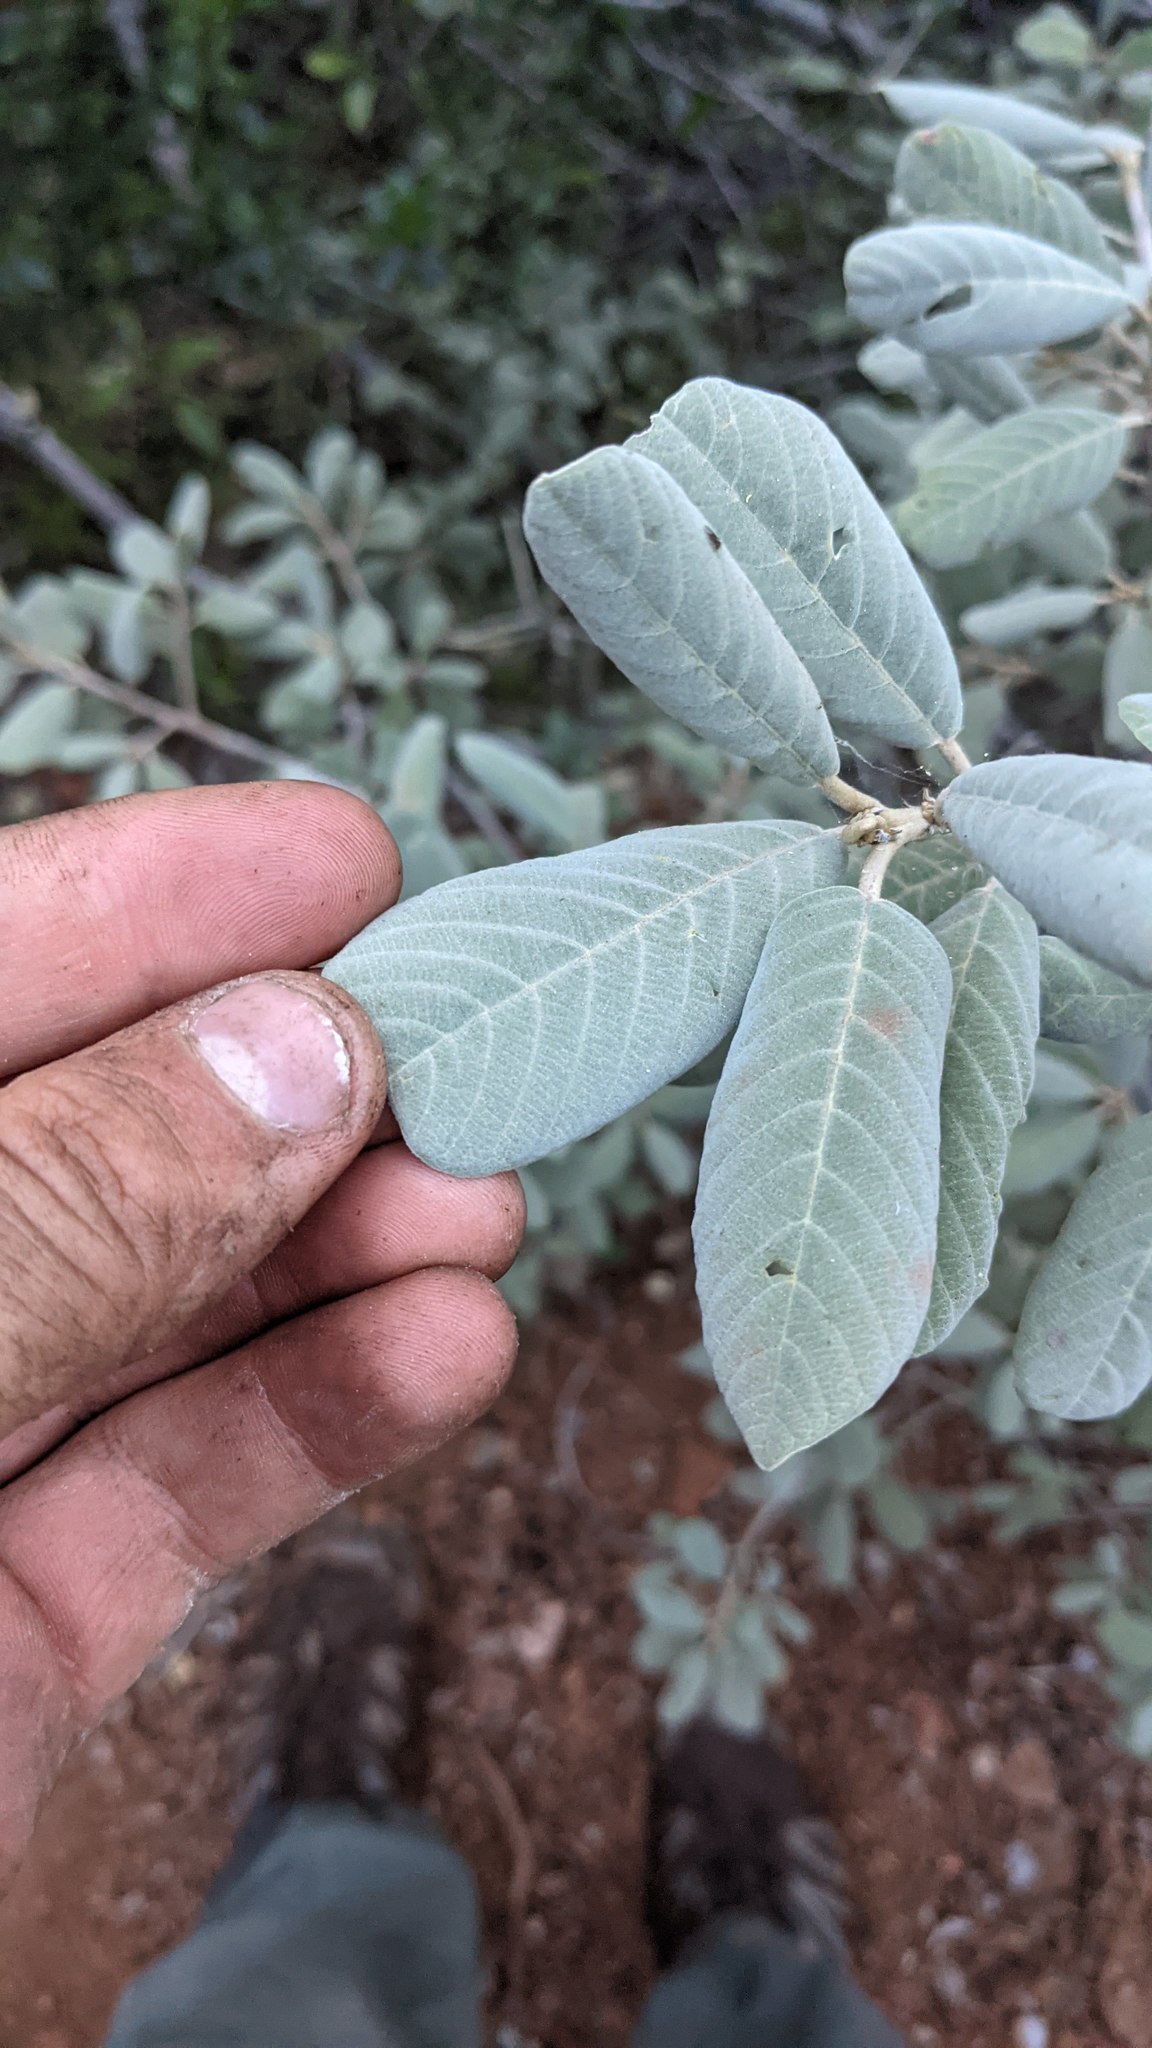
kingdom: Plantae
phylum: Tracheophyta
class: Magnoliopsida
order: Rosales
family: Rhamnaceae
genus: Frangula
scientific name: Frangula californica
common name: California buckthorn
